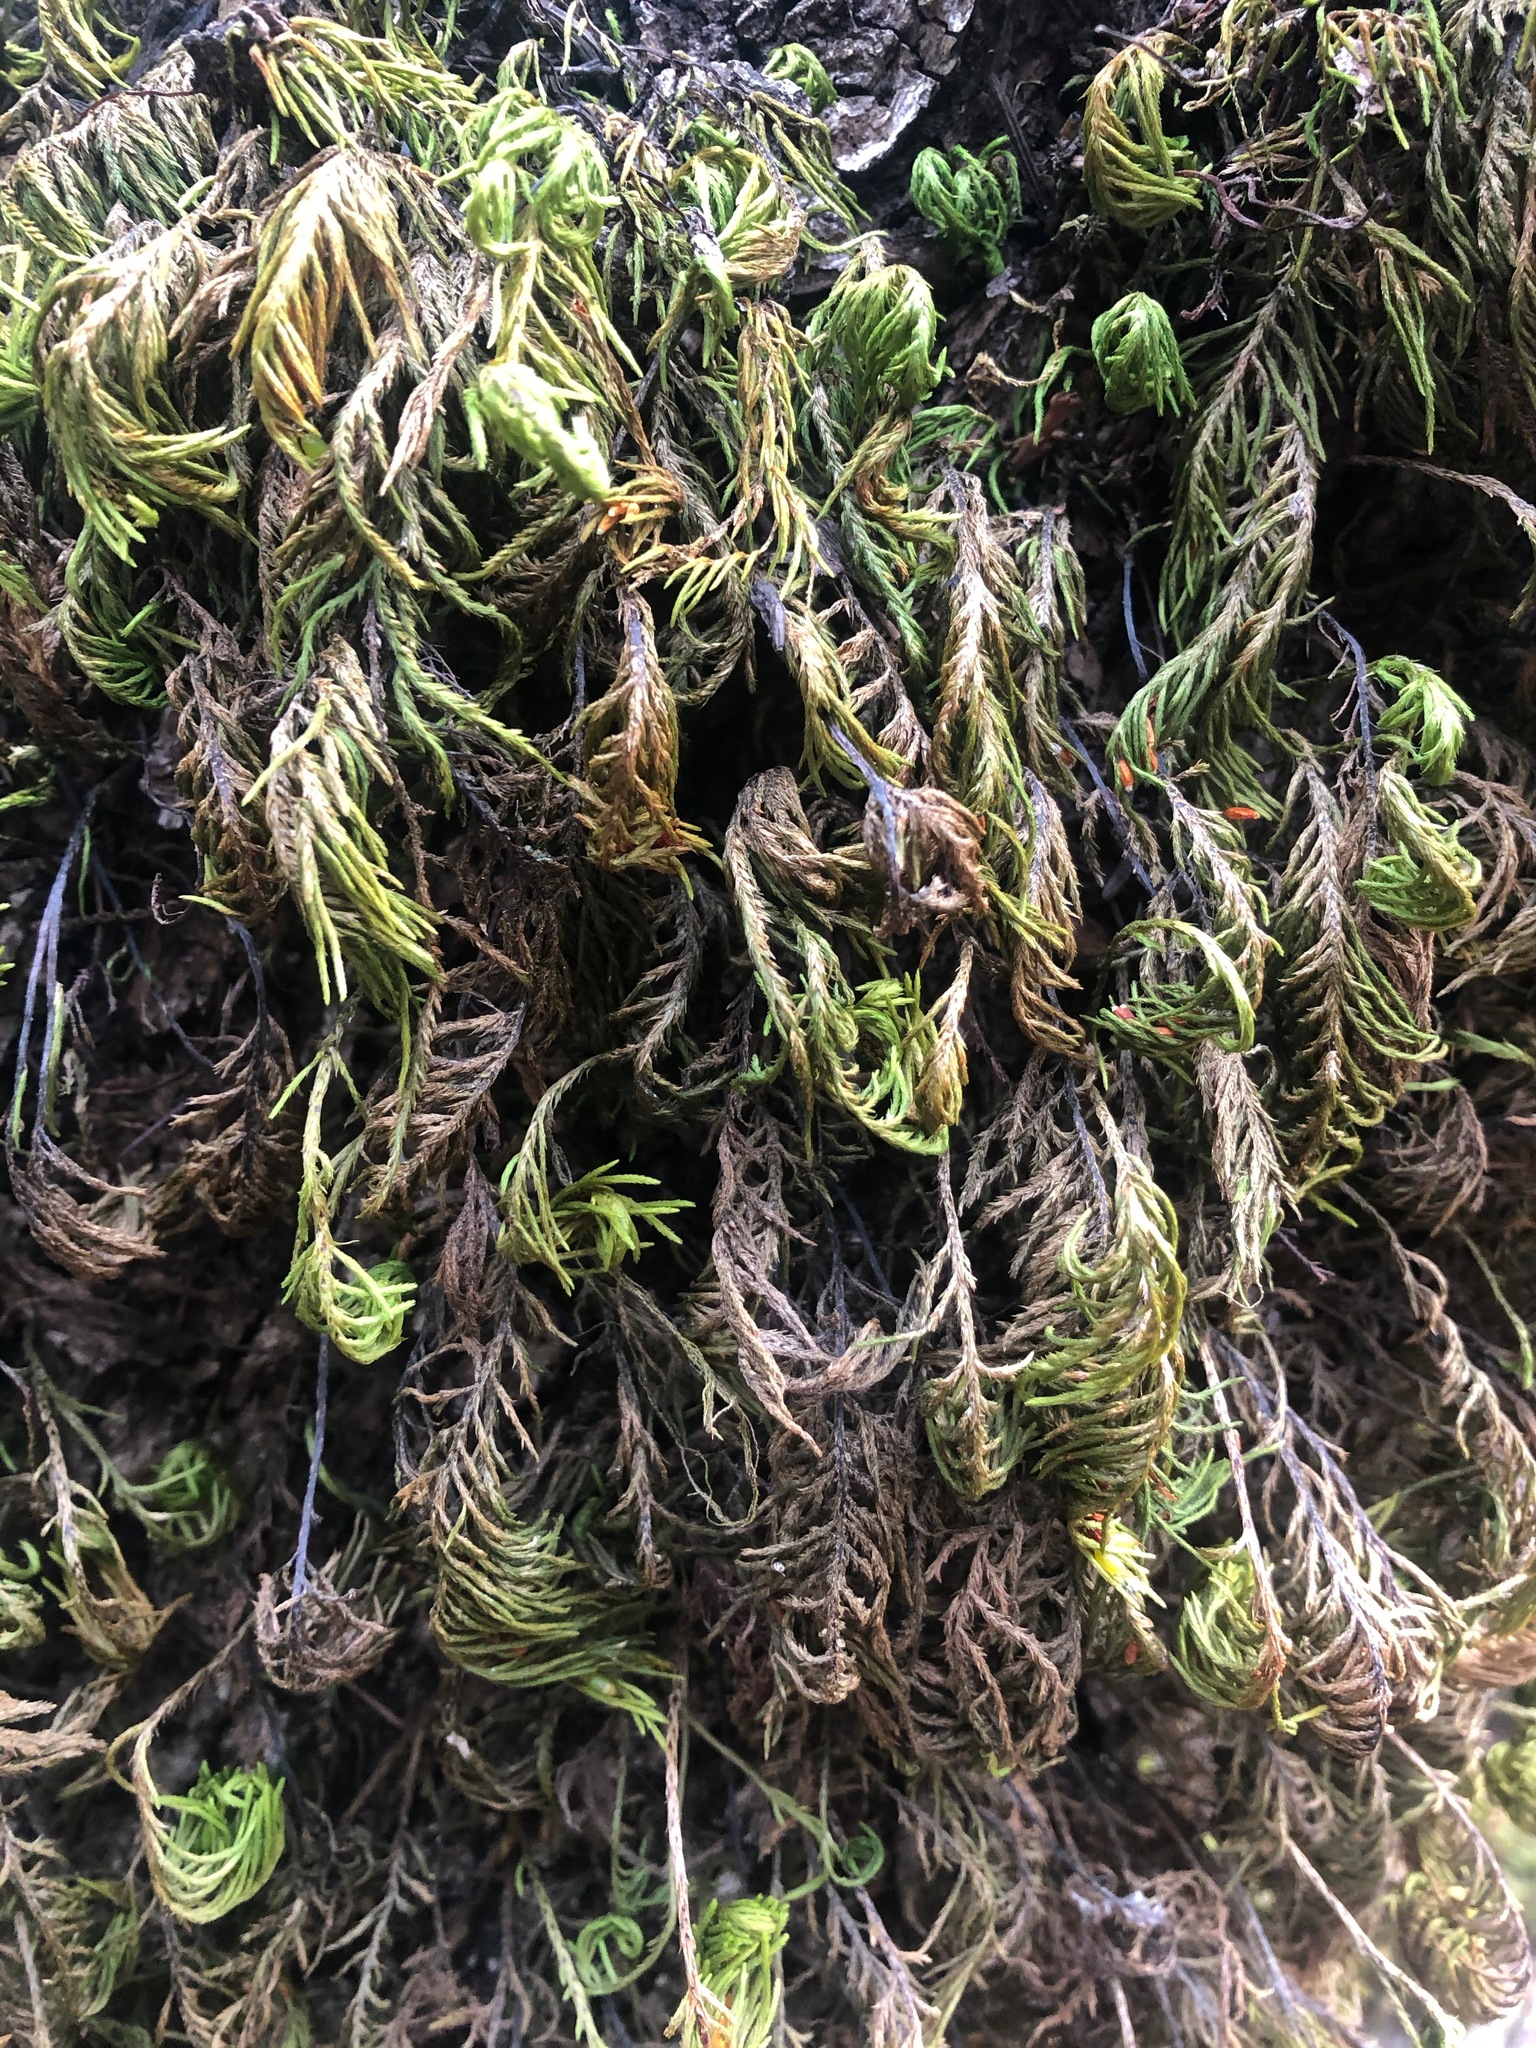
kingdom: Plantae
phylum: Bryophyta
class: Bryopsida
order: Hypnales
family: Cryphaeaceae
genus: Dendroalsia
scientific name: Dendroalsia abietina
